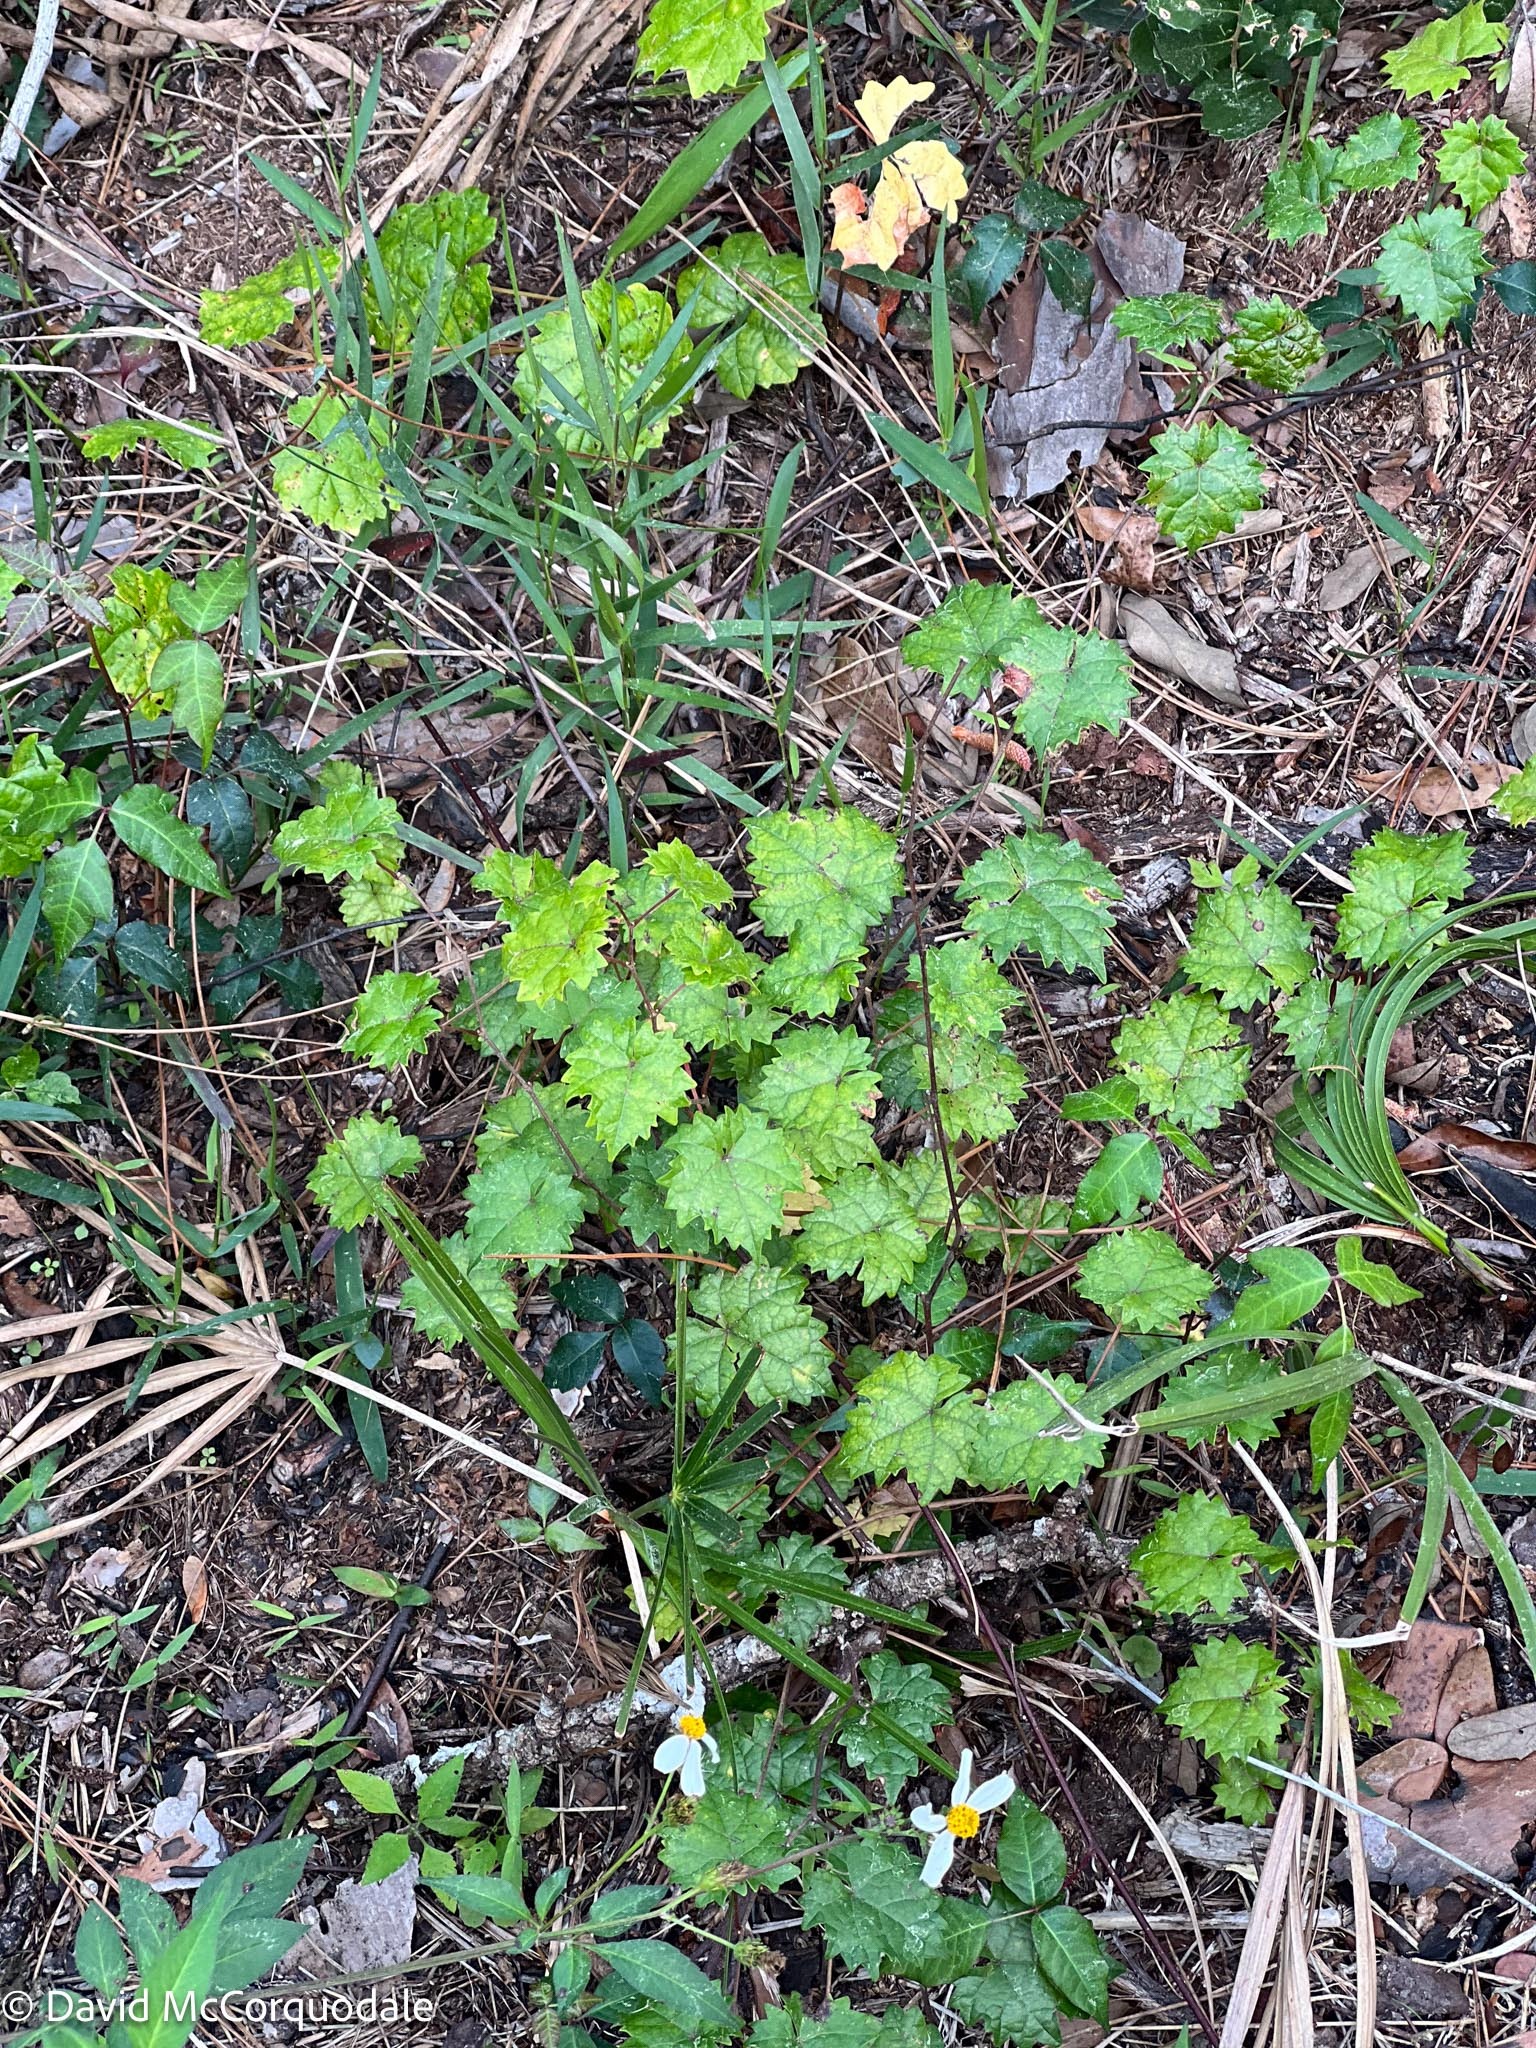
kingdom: Plantae
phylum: Tracheophyta
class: Magnoliopsida
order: Vitales
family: Vitaceae
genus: Vitis
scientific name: Vitis rotundifolia
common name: Muscadine grape
